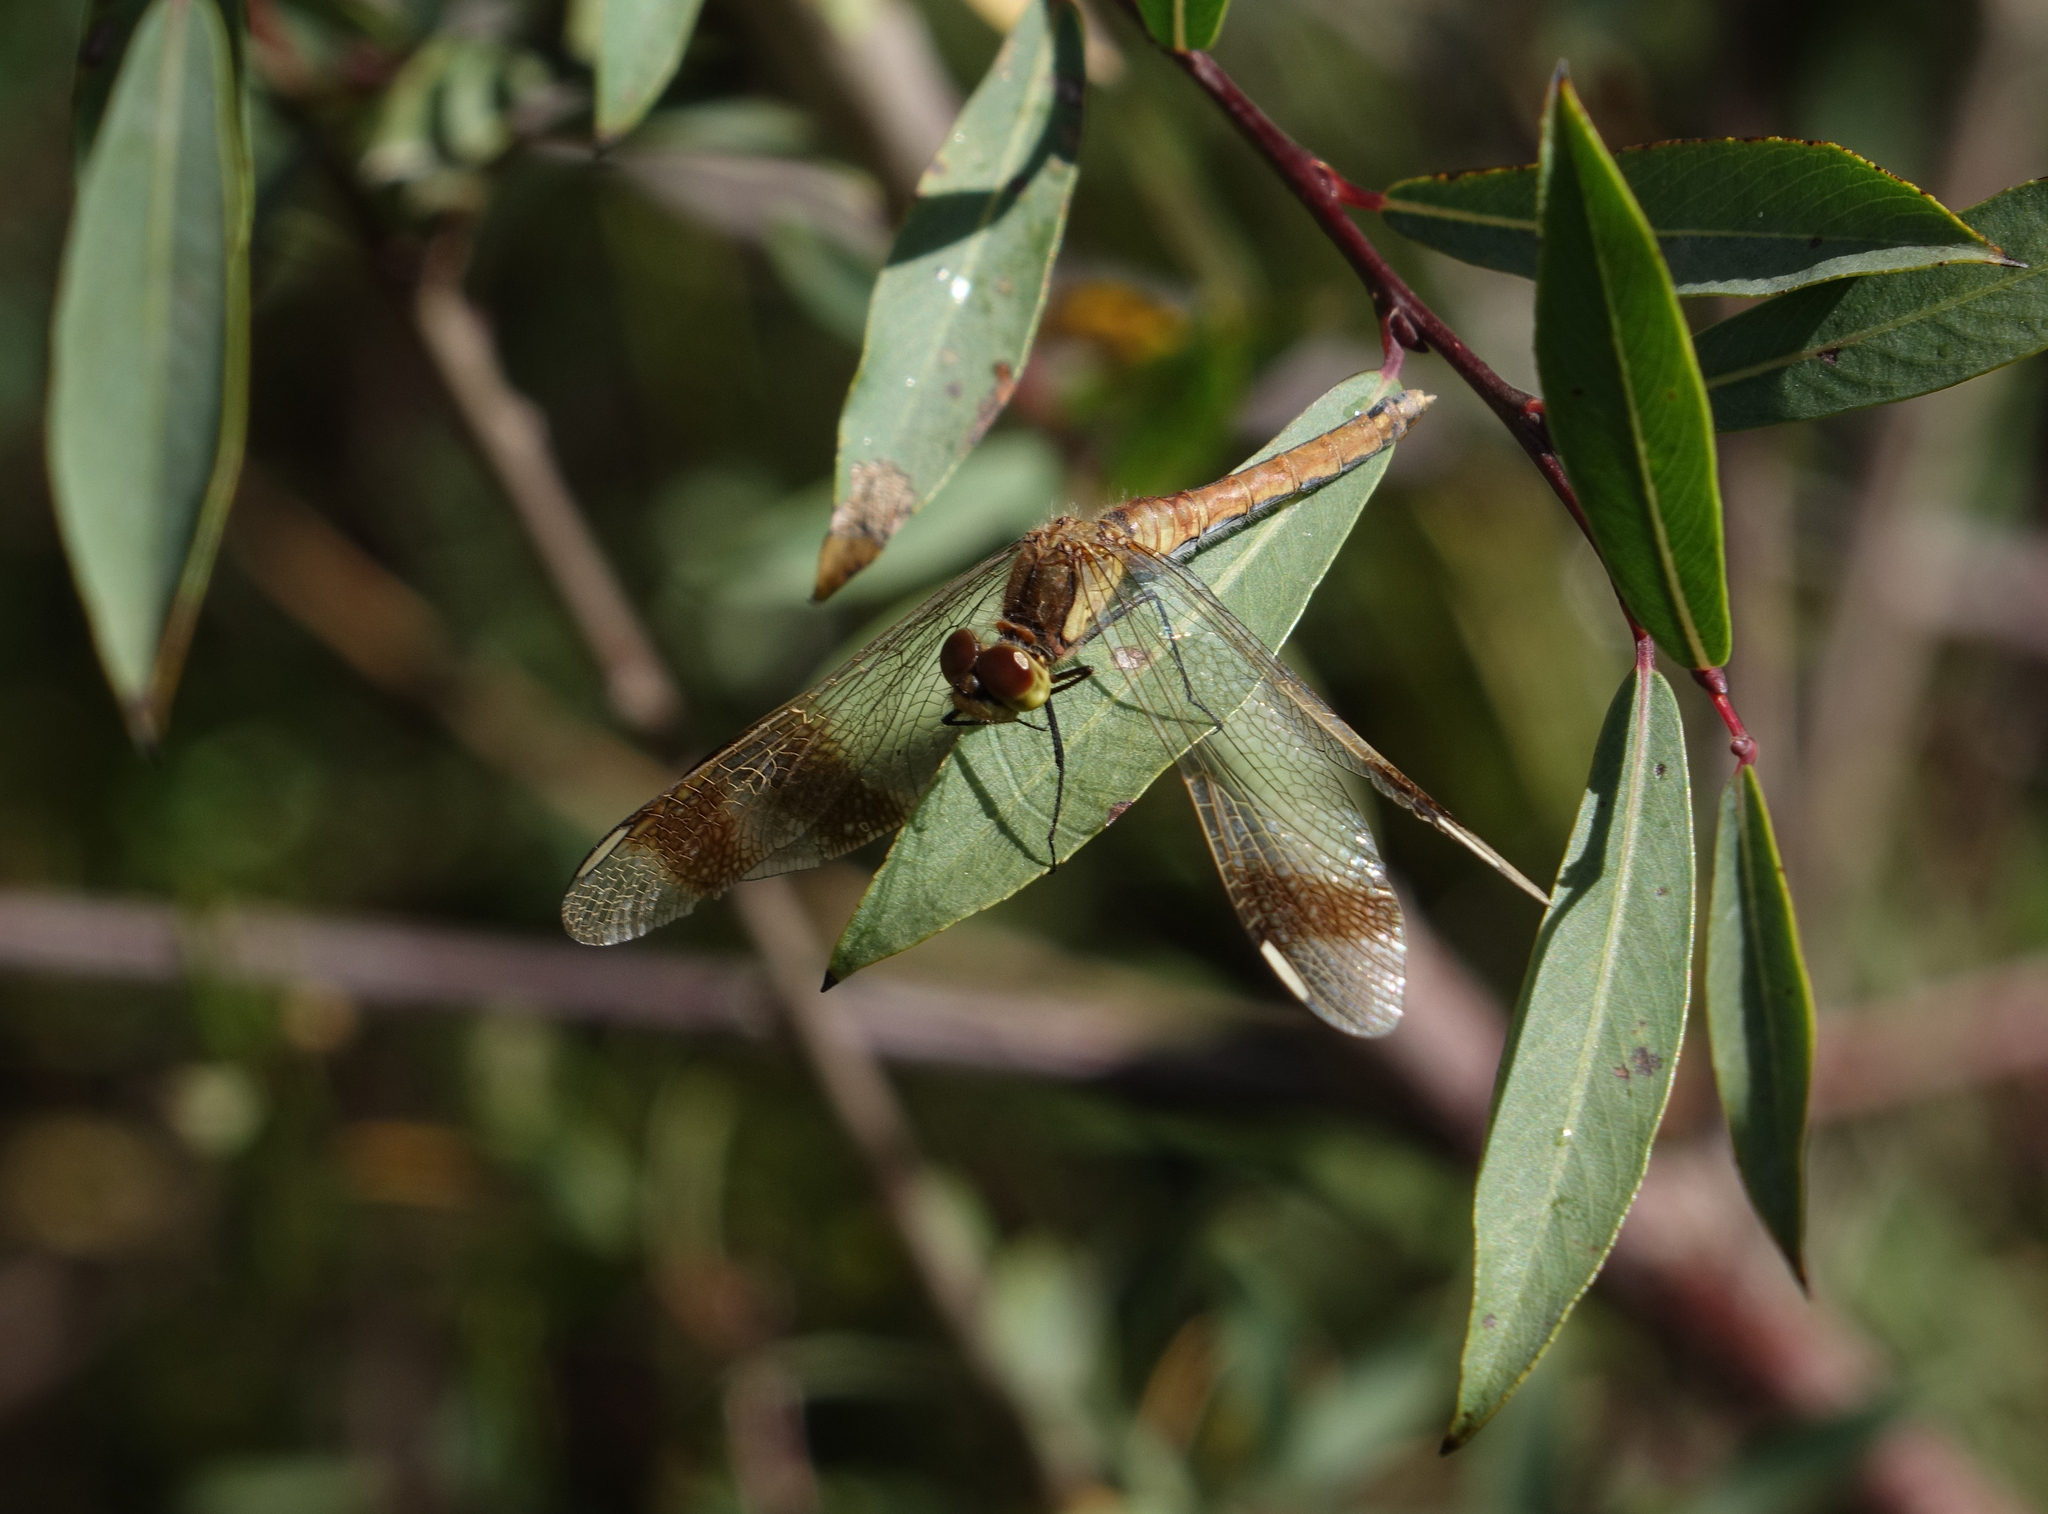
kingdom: Animalia
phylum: Arthropoda
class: Insecta
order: Odonata
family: Libellulidae
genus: Sympetrum
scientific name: Sympetrum pedemontanum
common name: Banded darter
